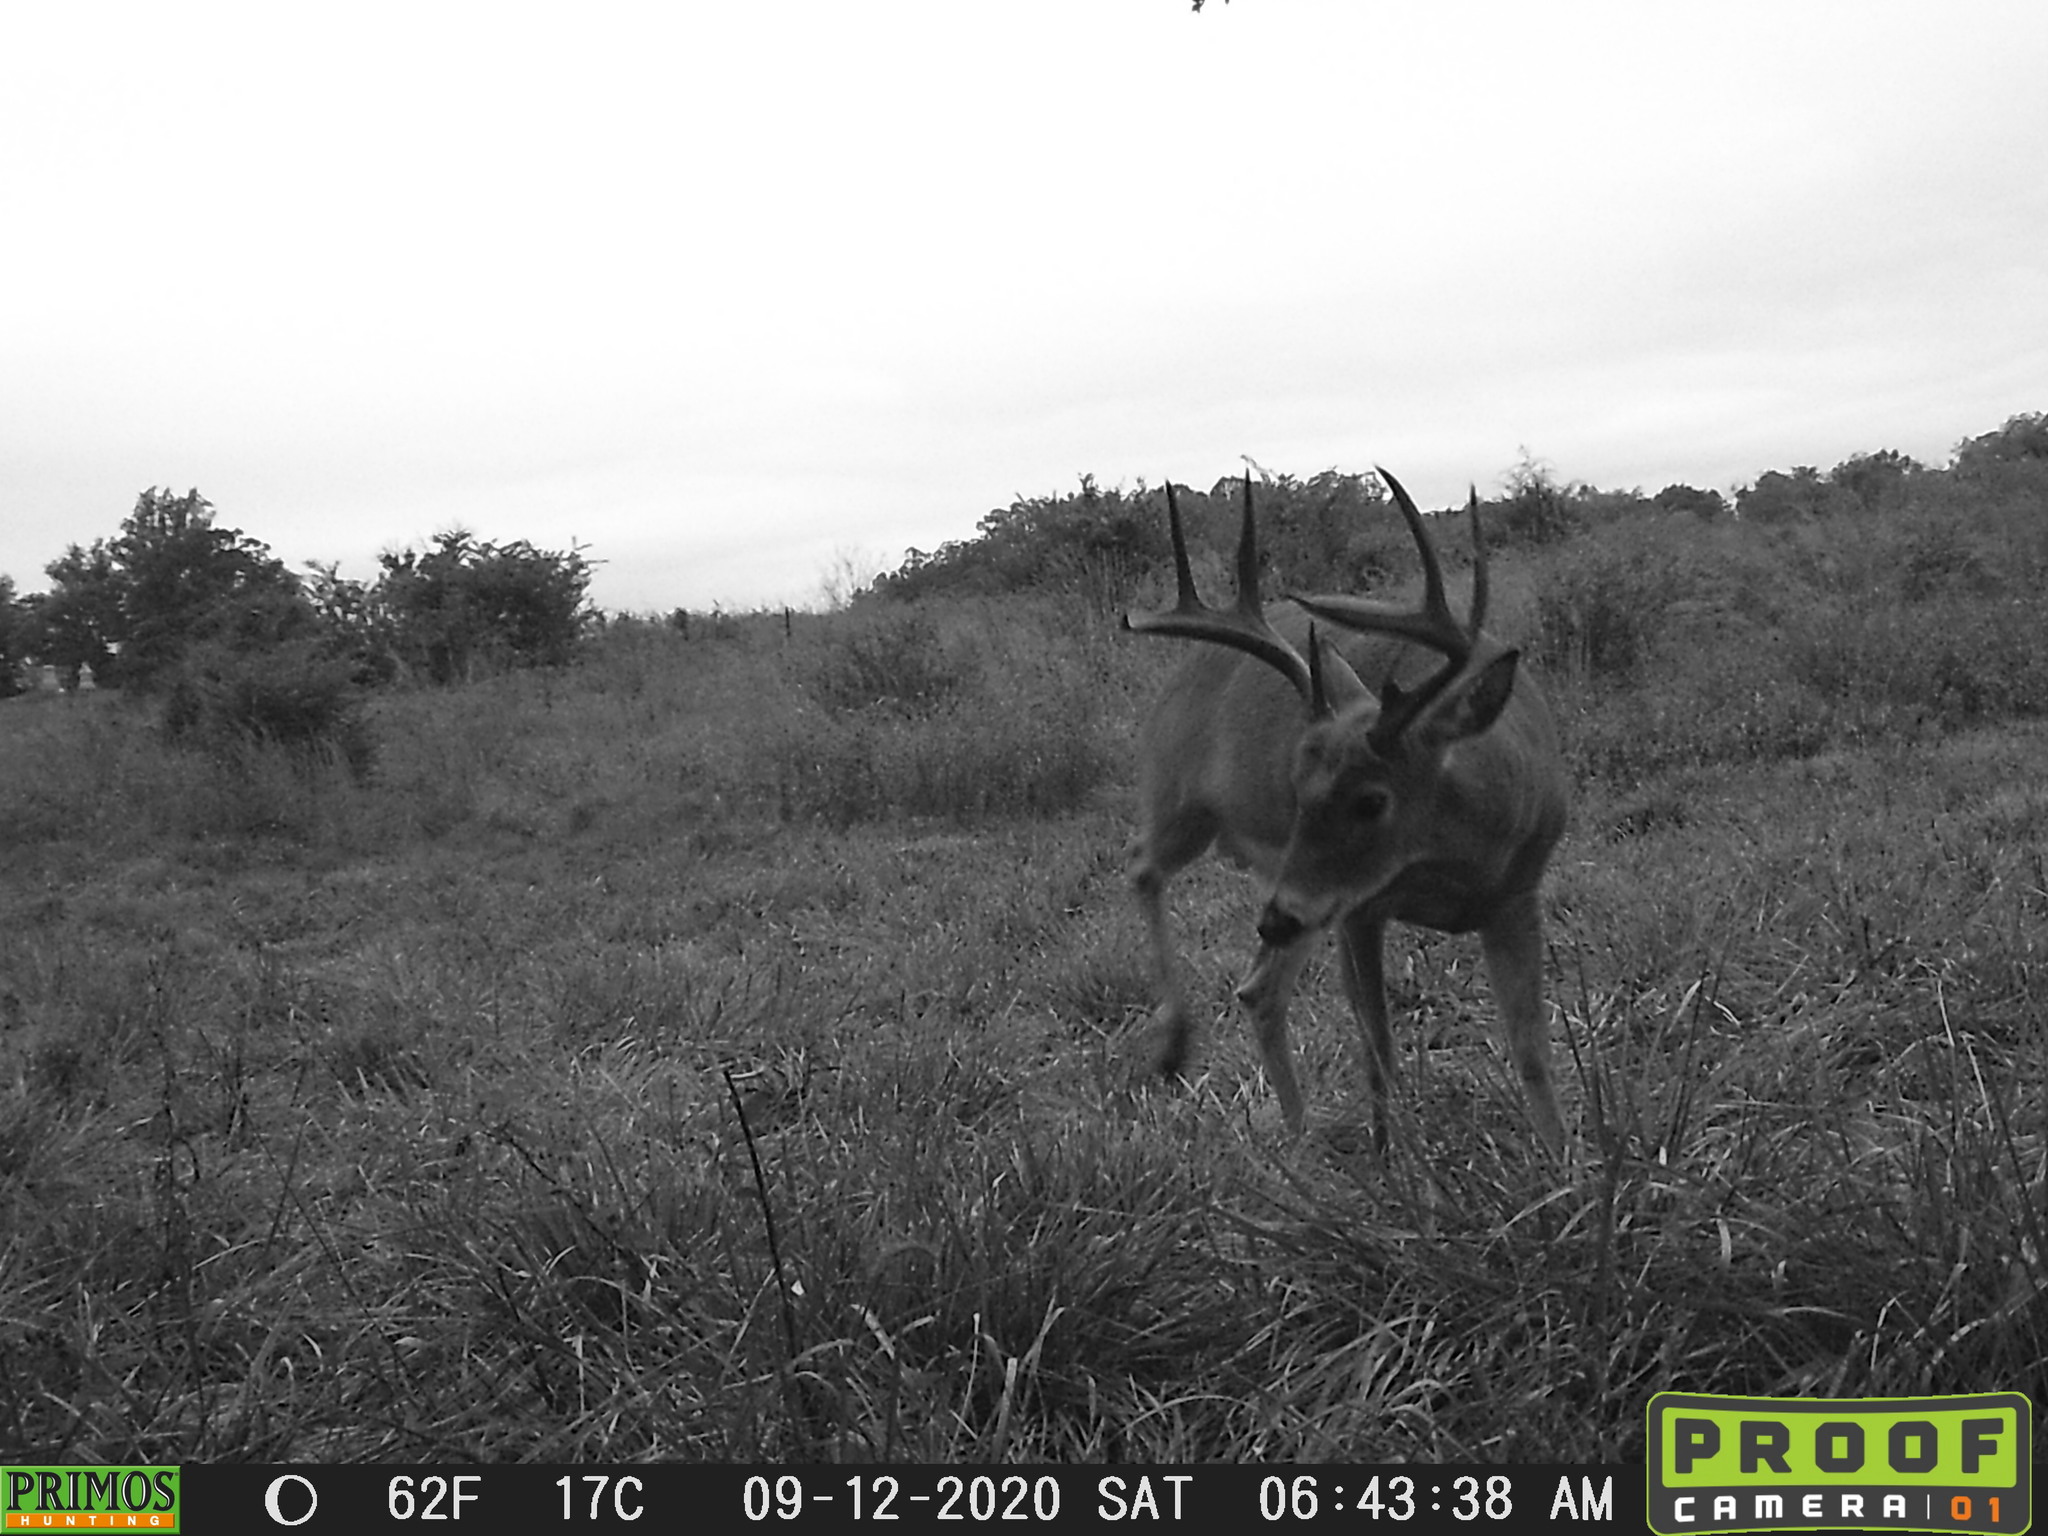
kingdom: Animalia
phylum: Chordata
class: Mammalia
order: Artiodactyla
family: Cervidae
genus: Odocoileus
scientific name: Odocoileus virginianus
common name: White-tailed deer
